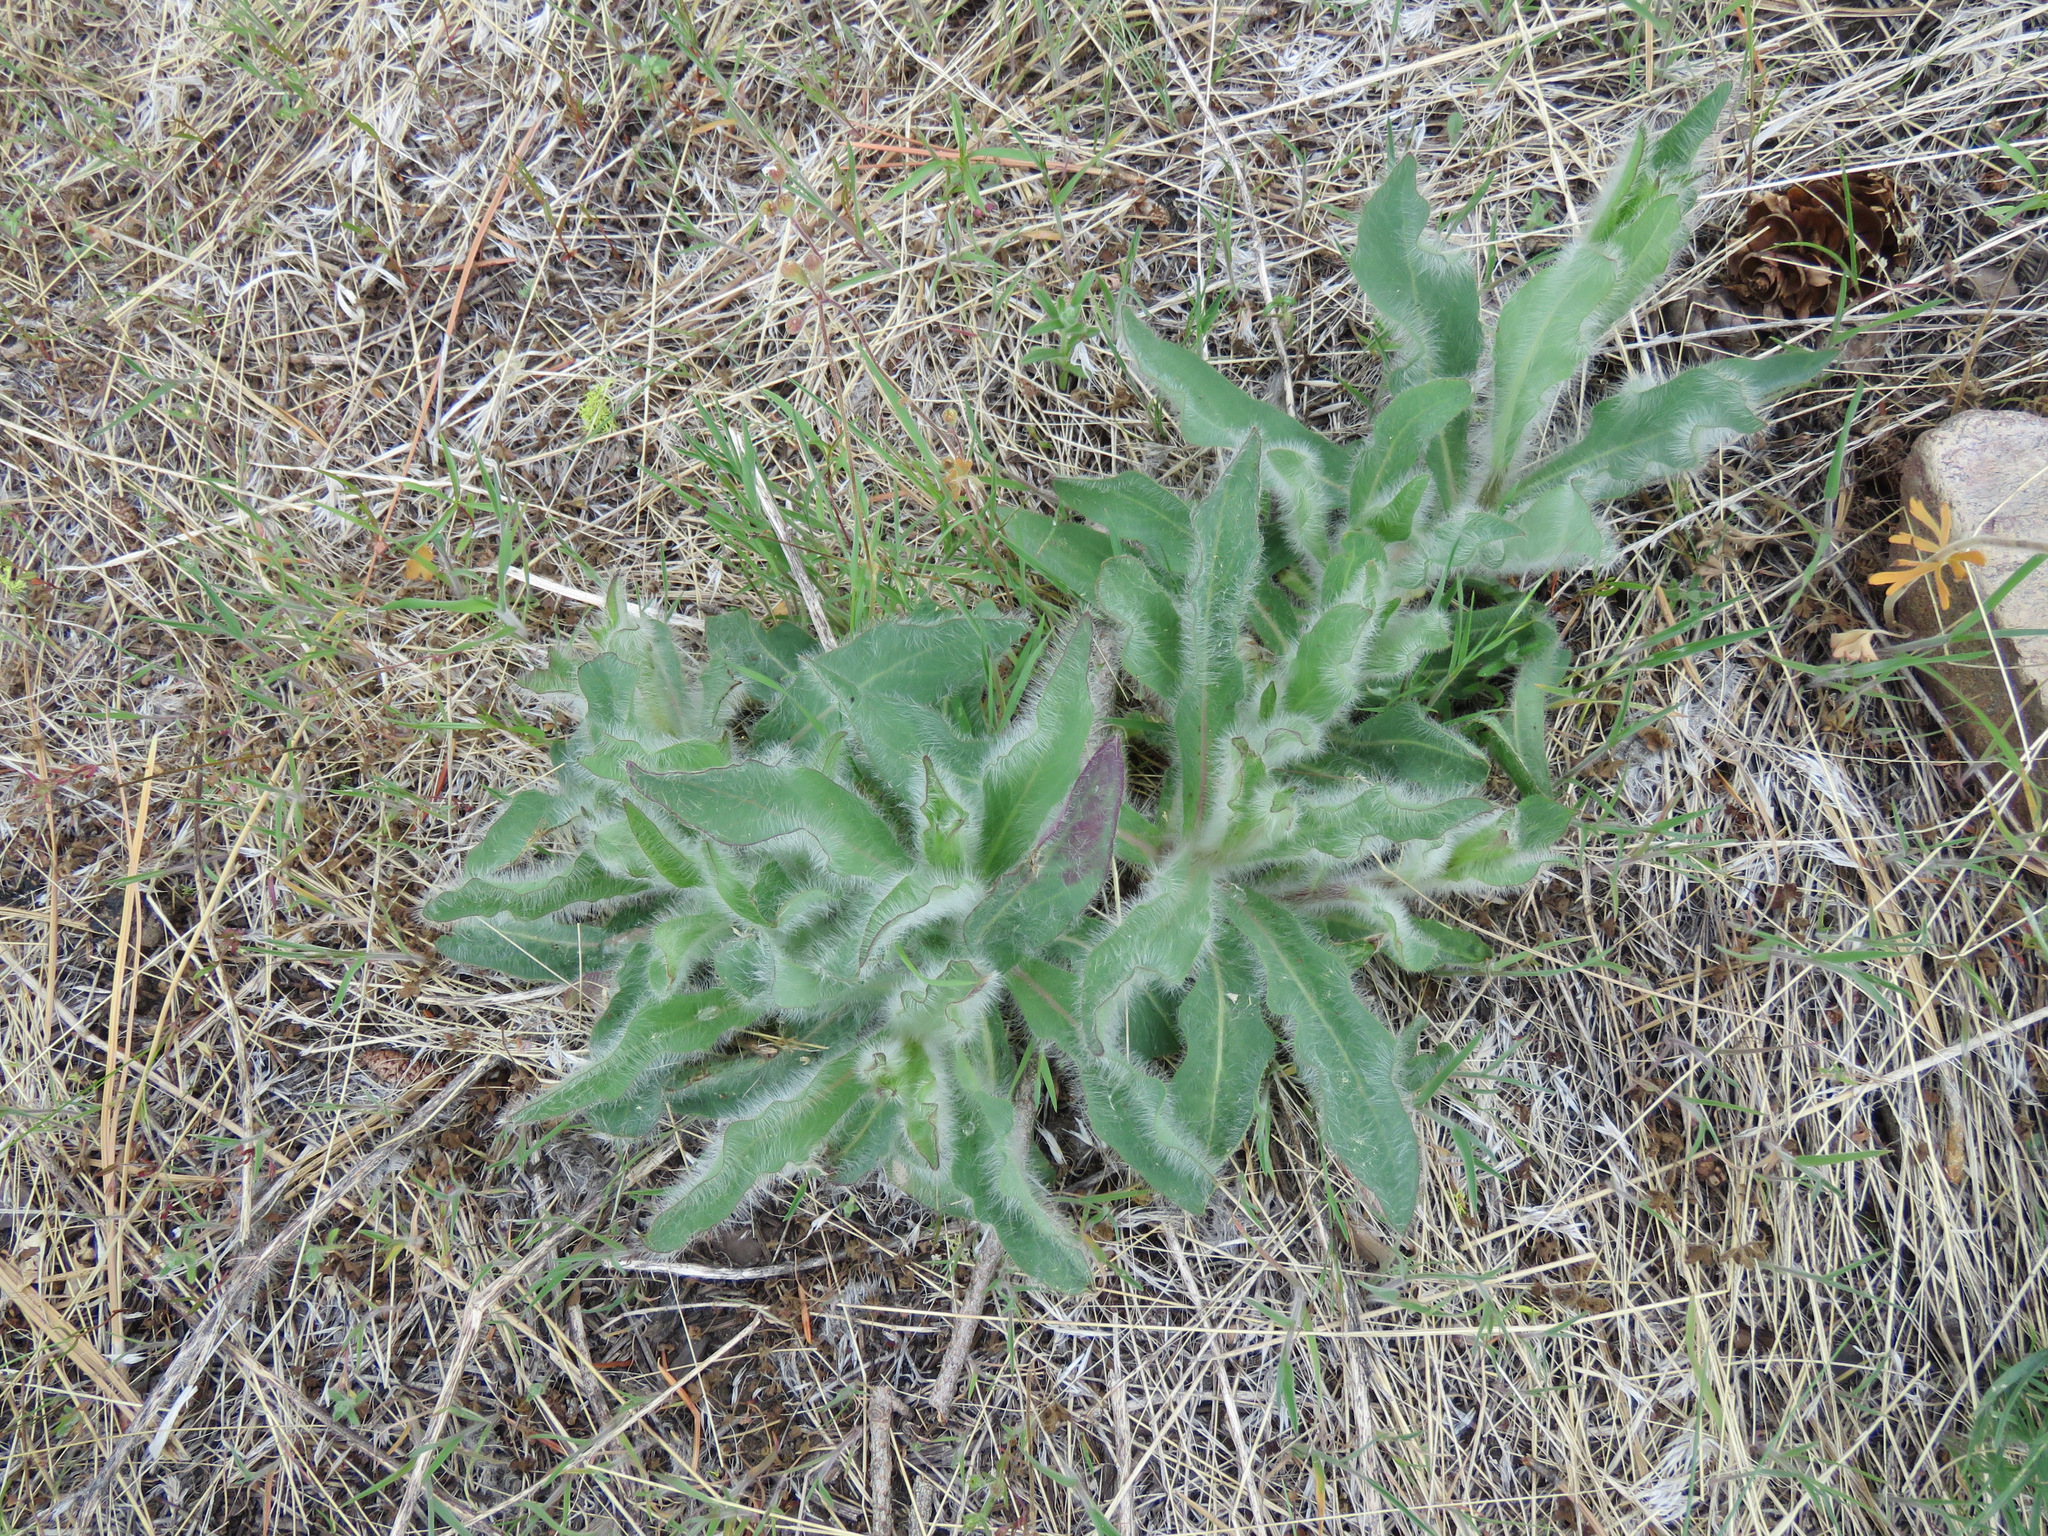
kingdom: Plantae
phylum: Tracheophyta
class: Magnoliopsida
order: Asterales
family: Asteraceae
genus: Hieracium
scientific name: Hieracium scouleri
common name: Hound's-tongue hawkweed
